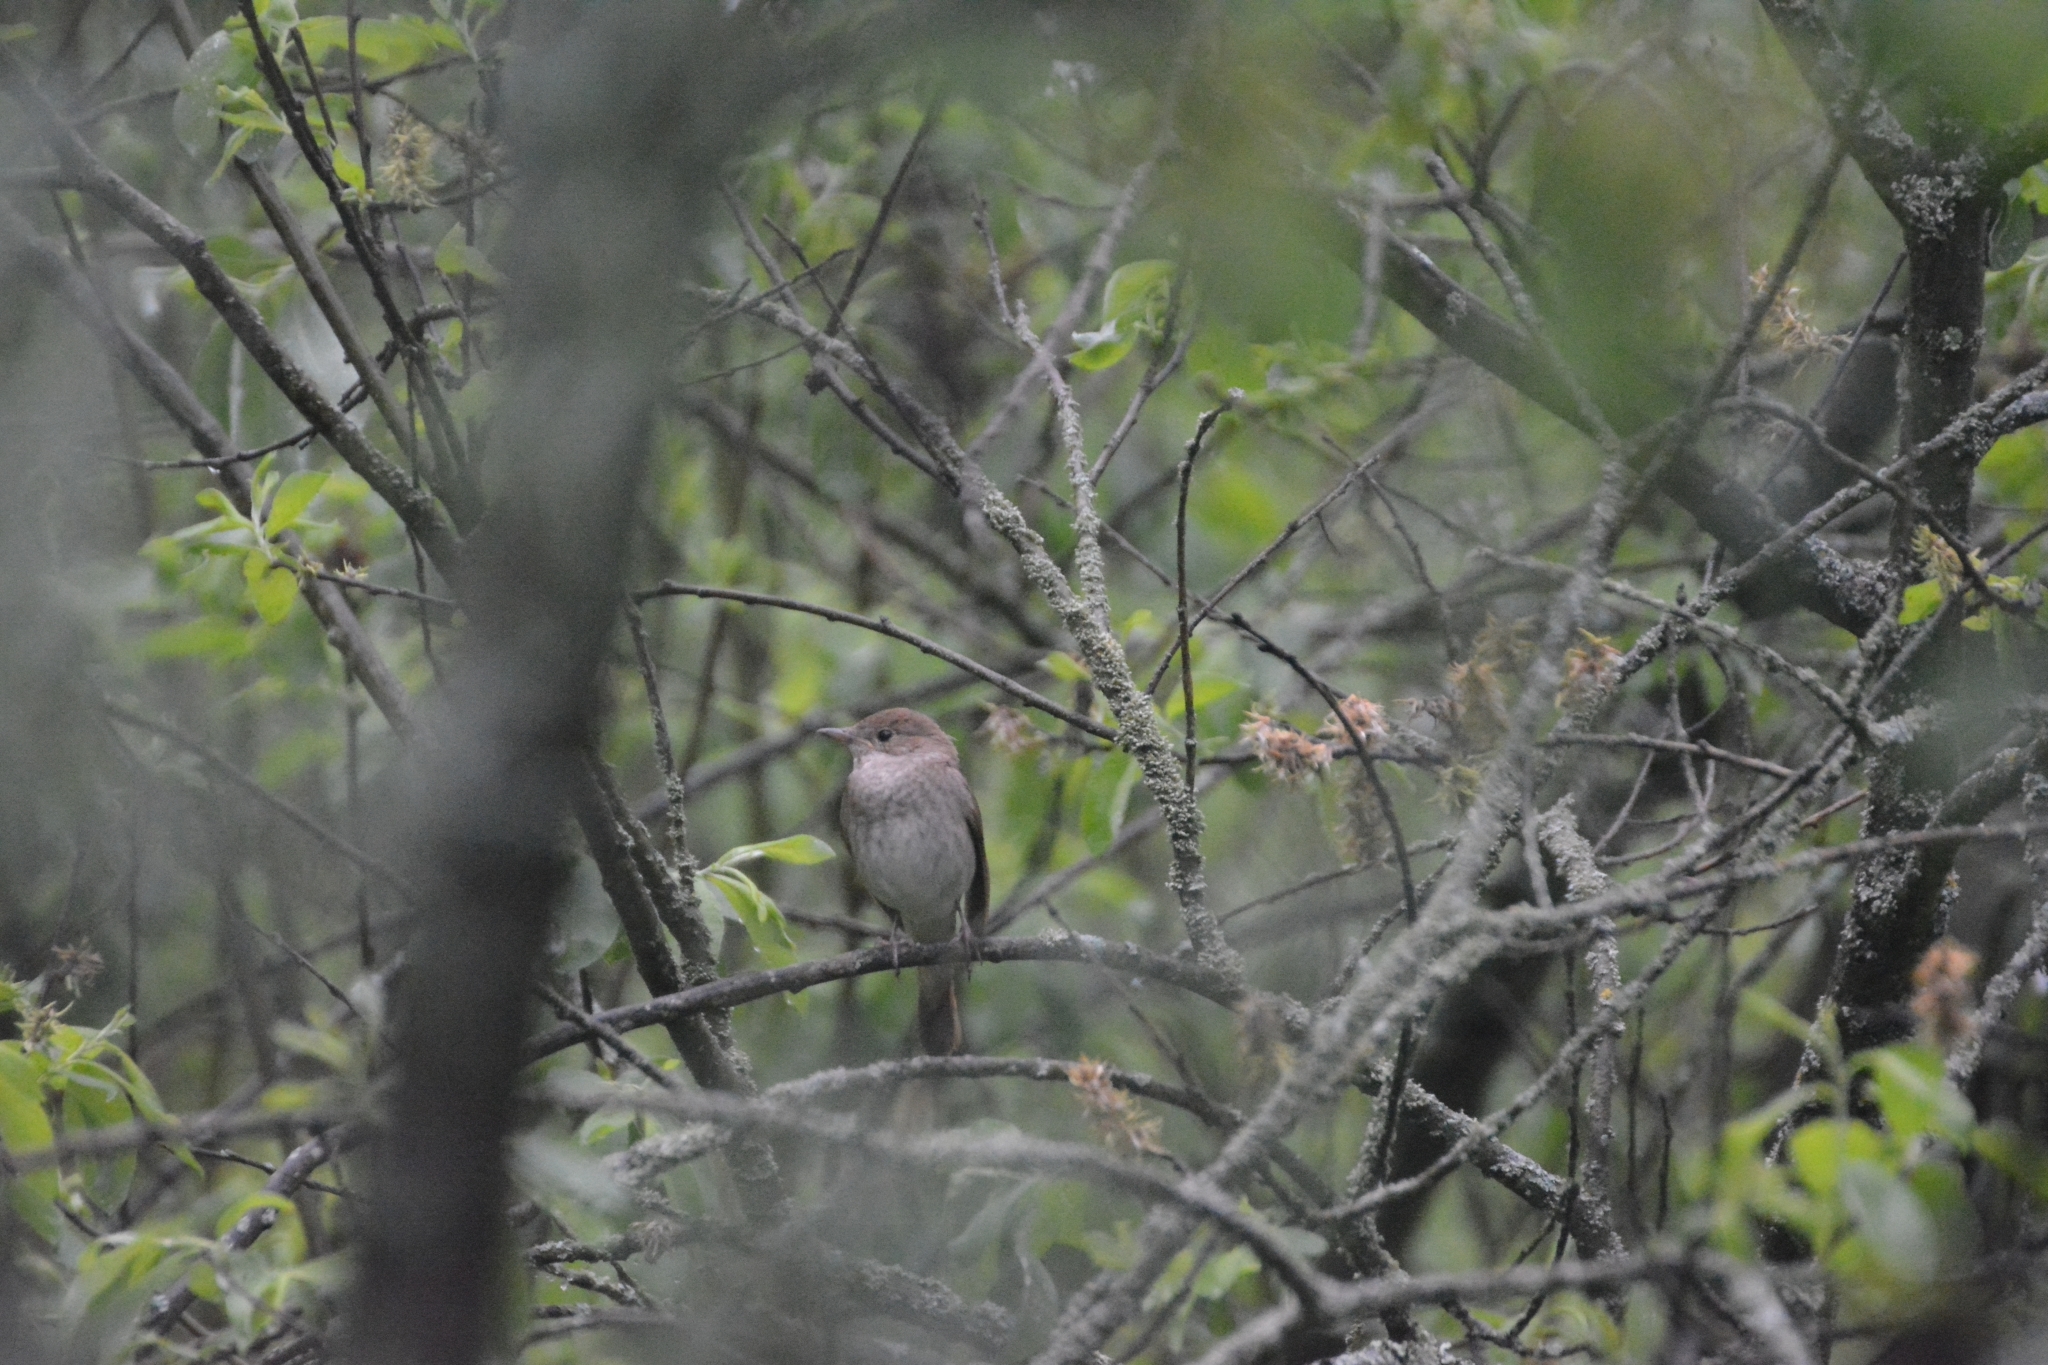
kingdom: Animalia
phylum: Chordata
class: Aves
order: Passeriformes
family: Muscicapidae
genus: Luscinia
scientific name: Luscinia luscinia
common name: Thrush nightingale
